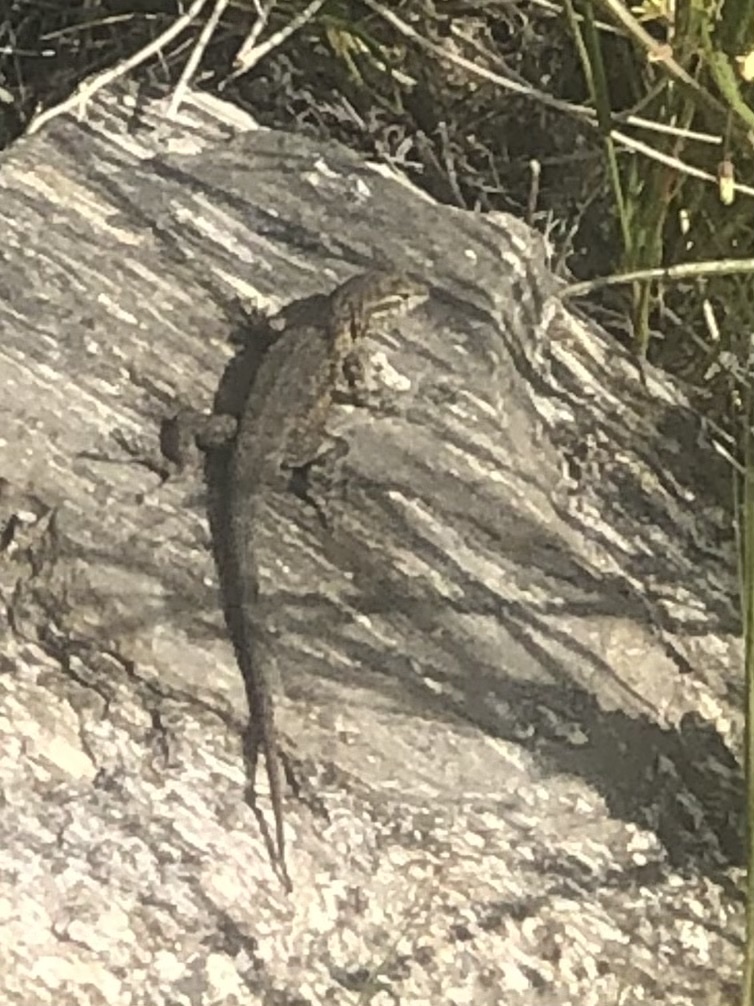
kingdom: Animalia
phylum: Chordata
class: Squamata
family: Phrynosomatidae
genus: Uta
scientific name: Uta stansburiana
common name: Side-blotched lizard
